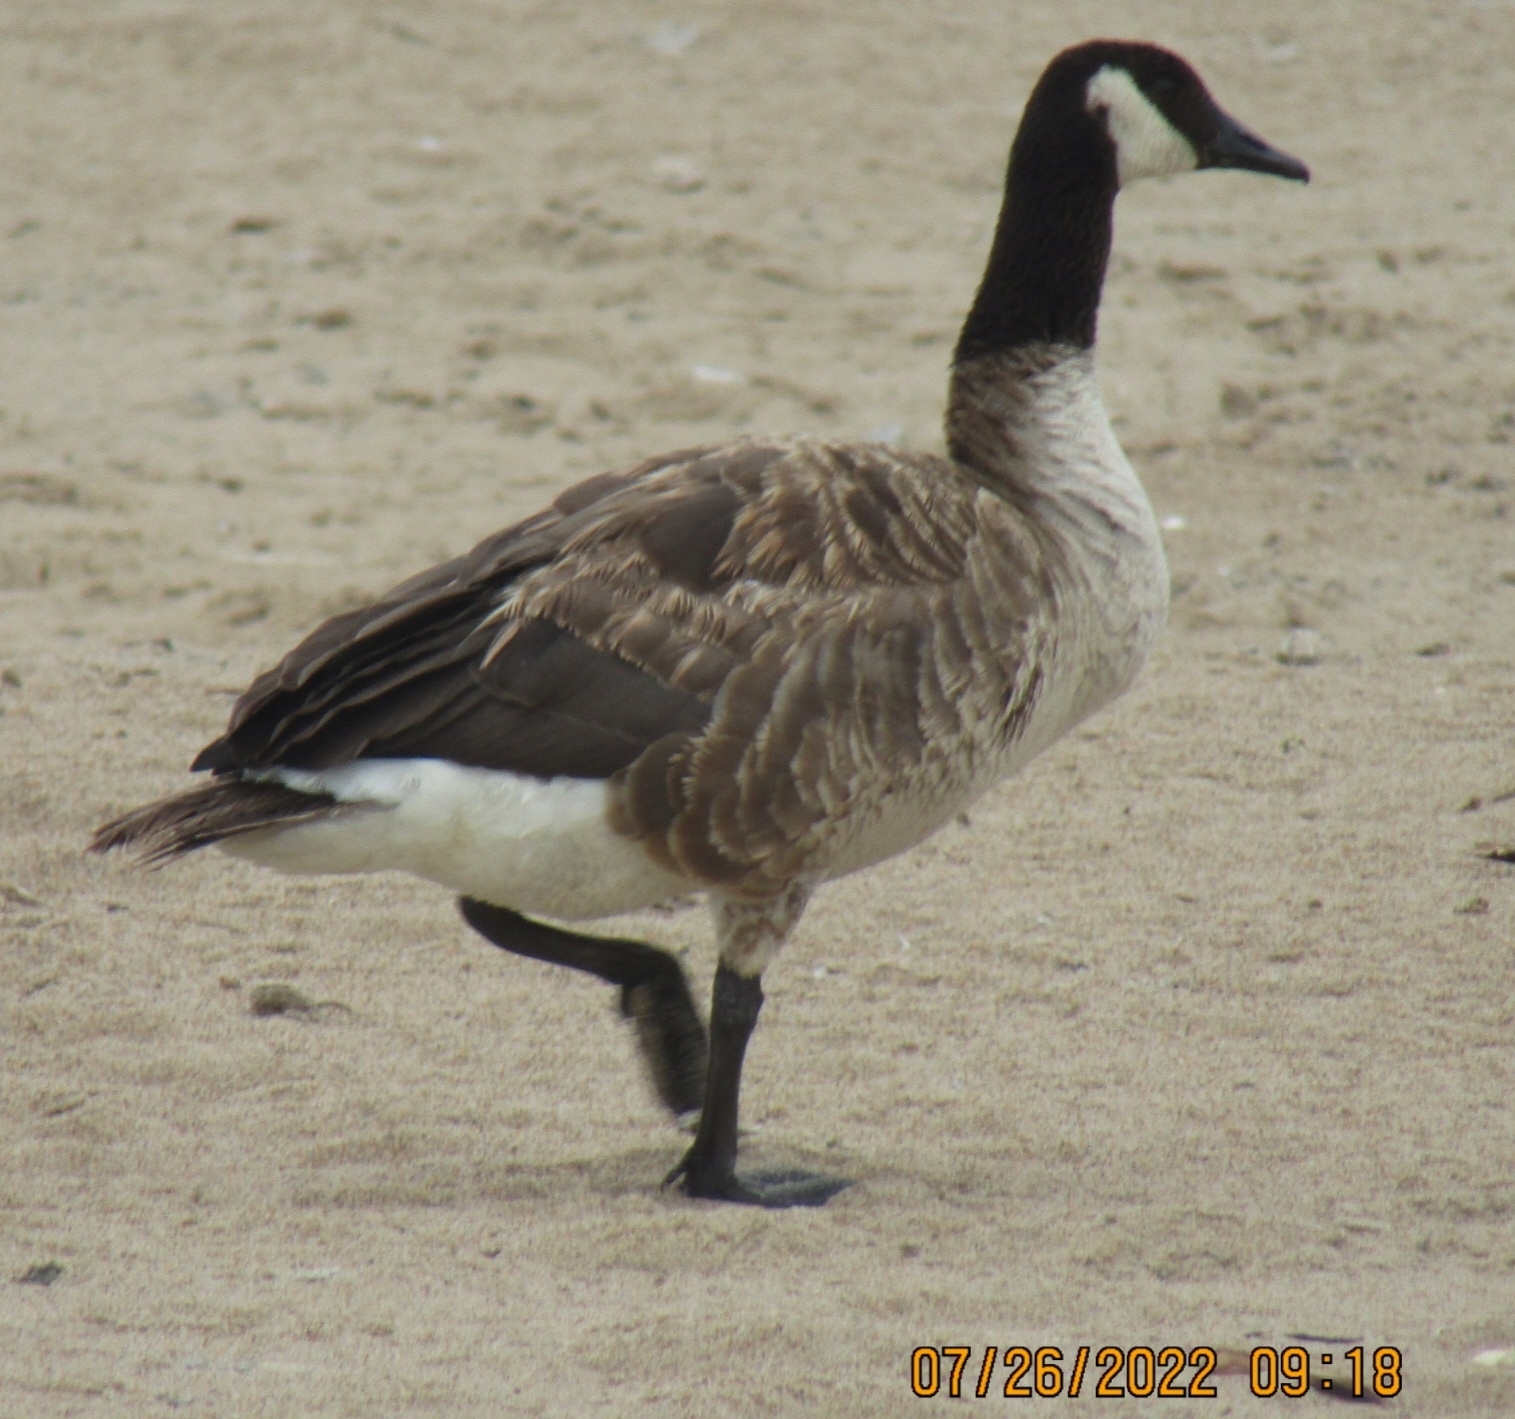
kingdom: Animalia
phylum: Chordata
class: Aves
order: Anseriformes
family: Anatidae
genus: Branta
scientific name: Branta canadensis
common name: Canada goose
